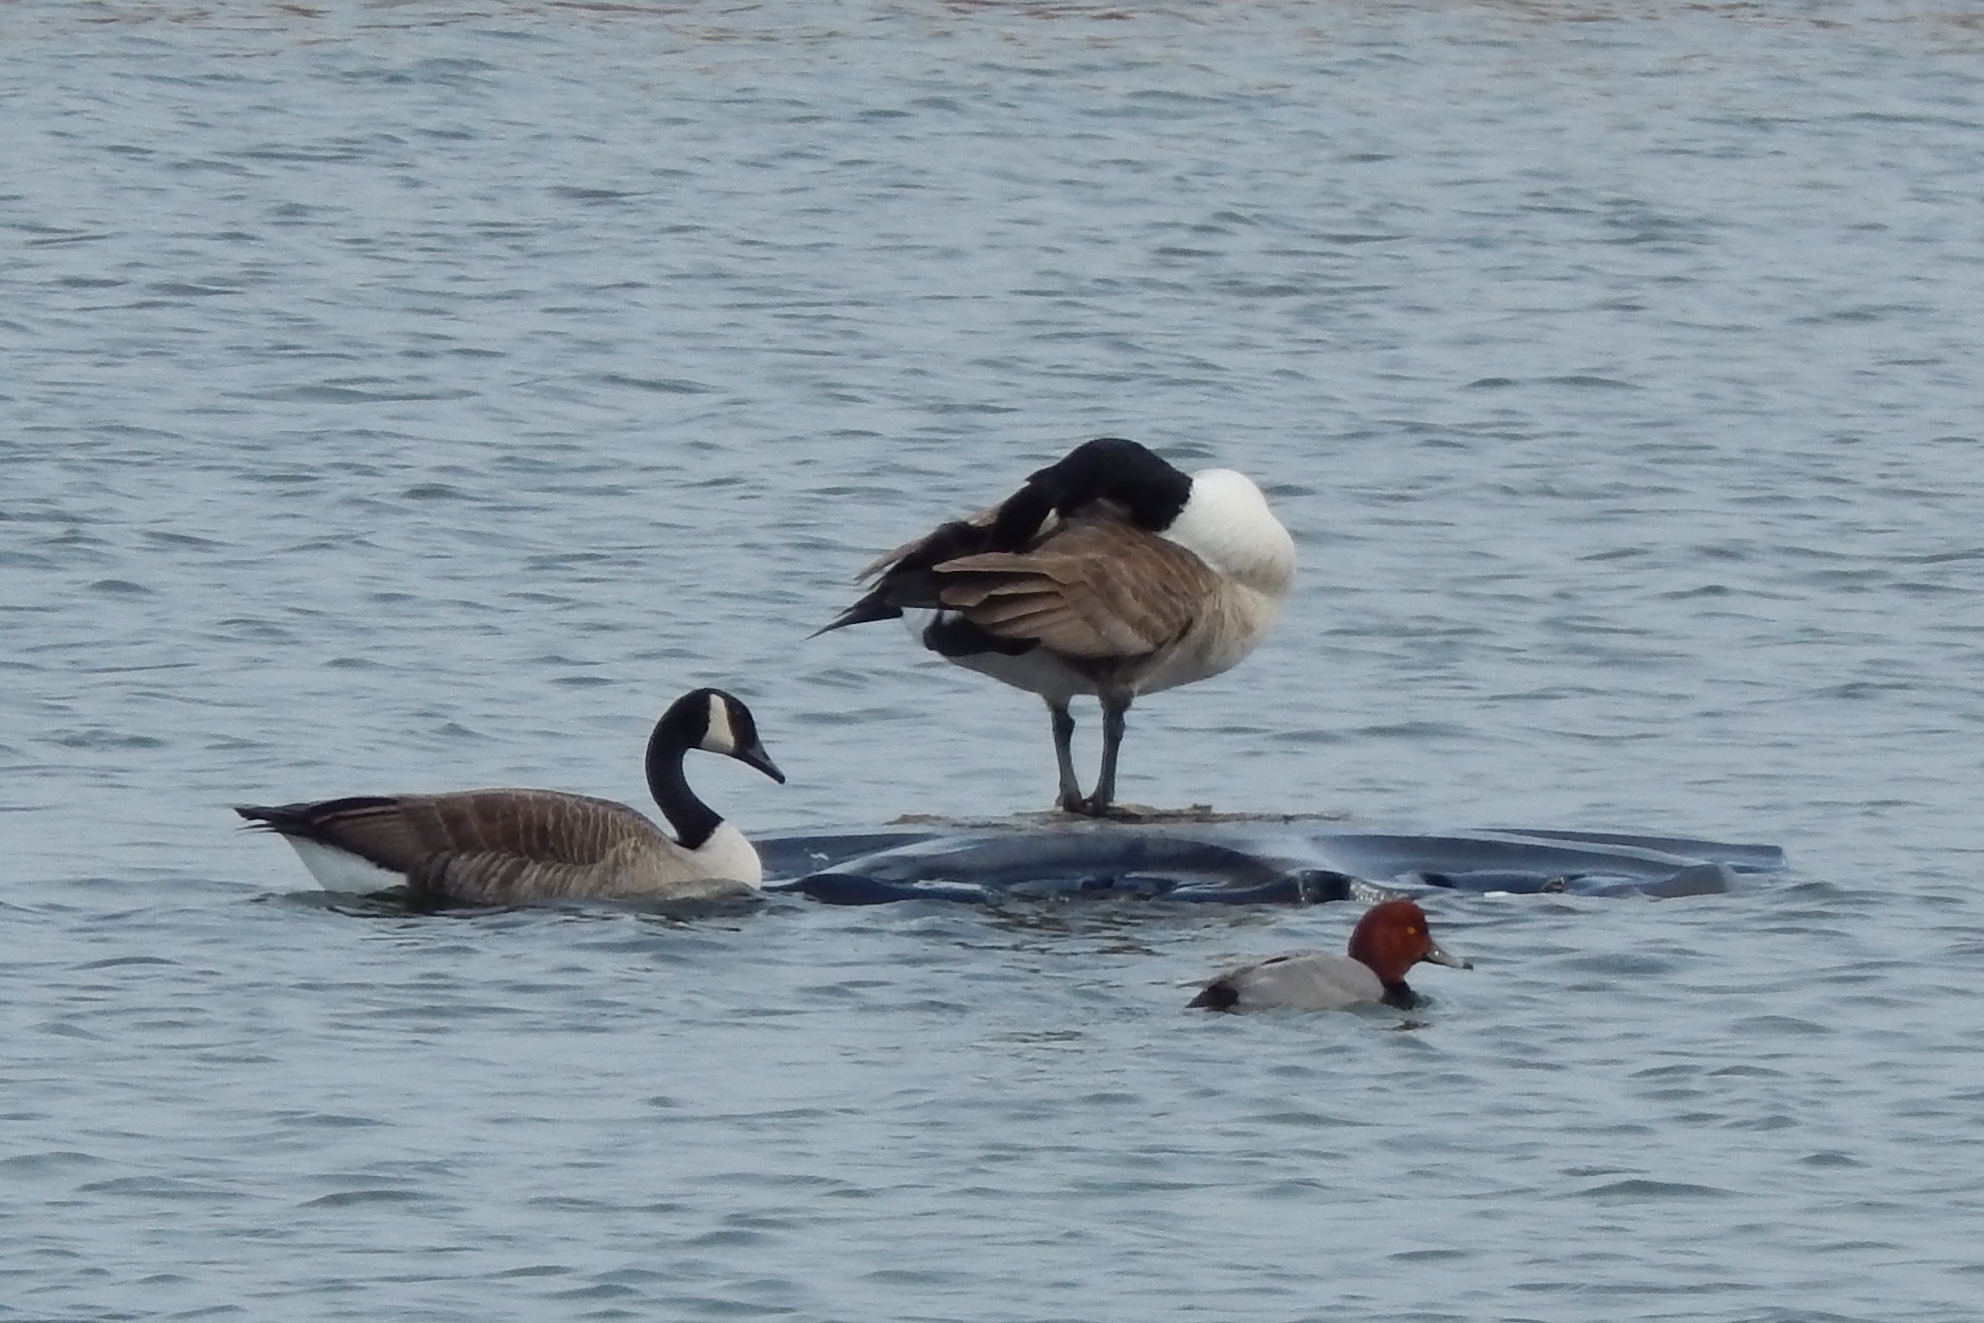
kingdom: Animalia
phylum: Chordata
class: Aves
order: Anseriformes
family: Anatidae
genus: Aythya
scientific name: Aythya americana
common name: Redhead
